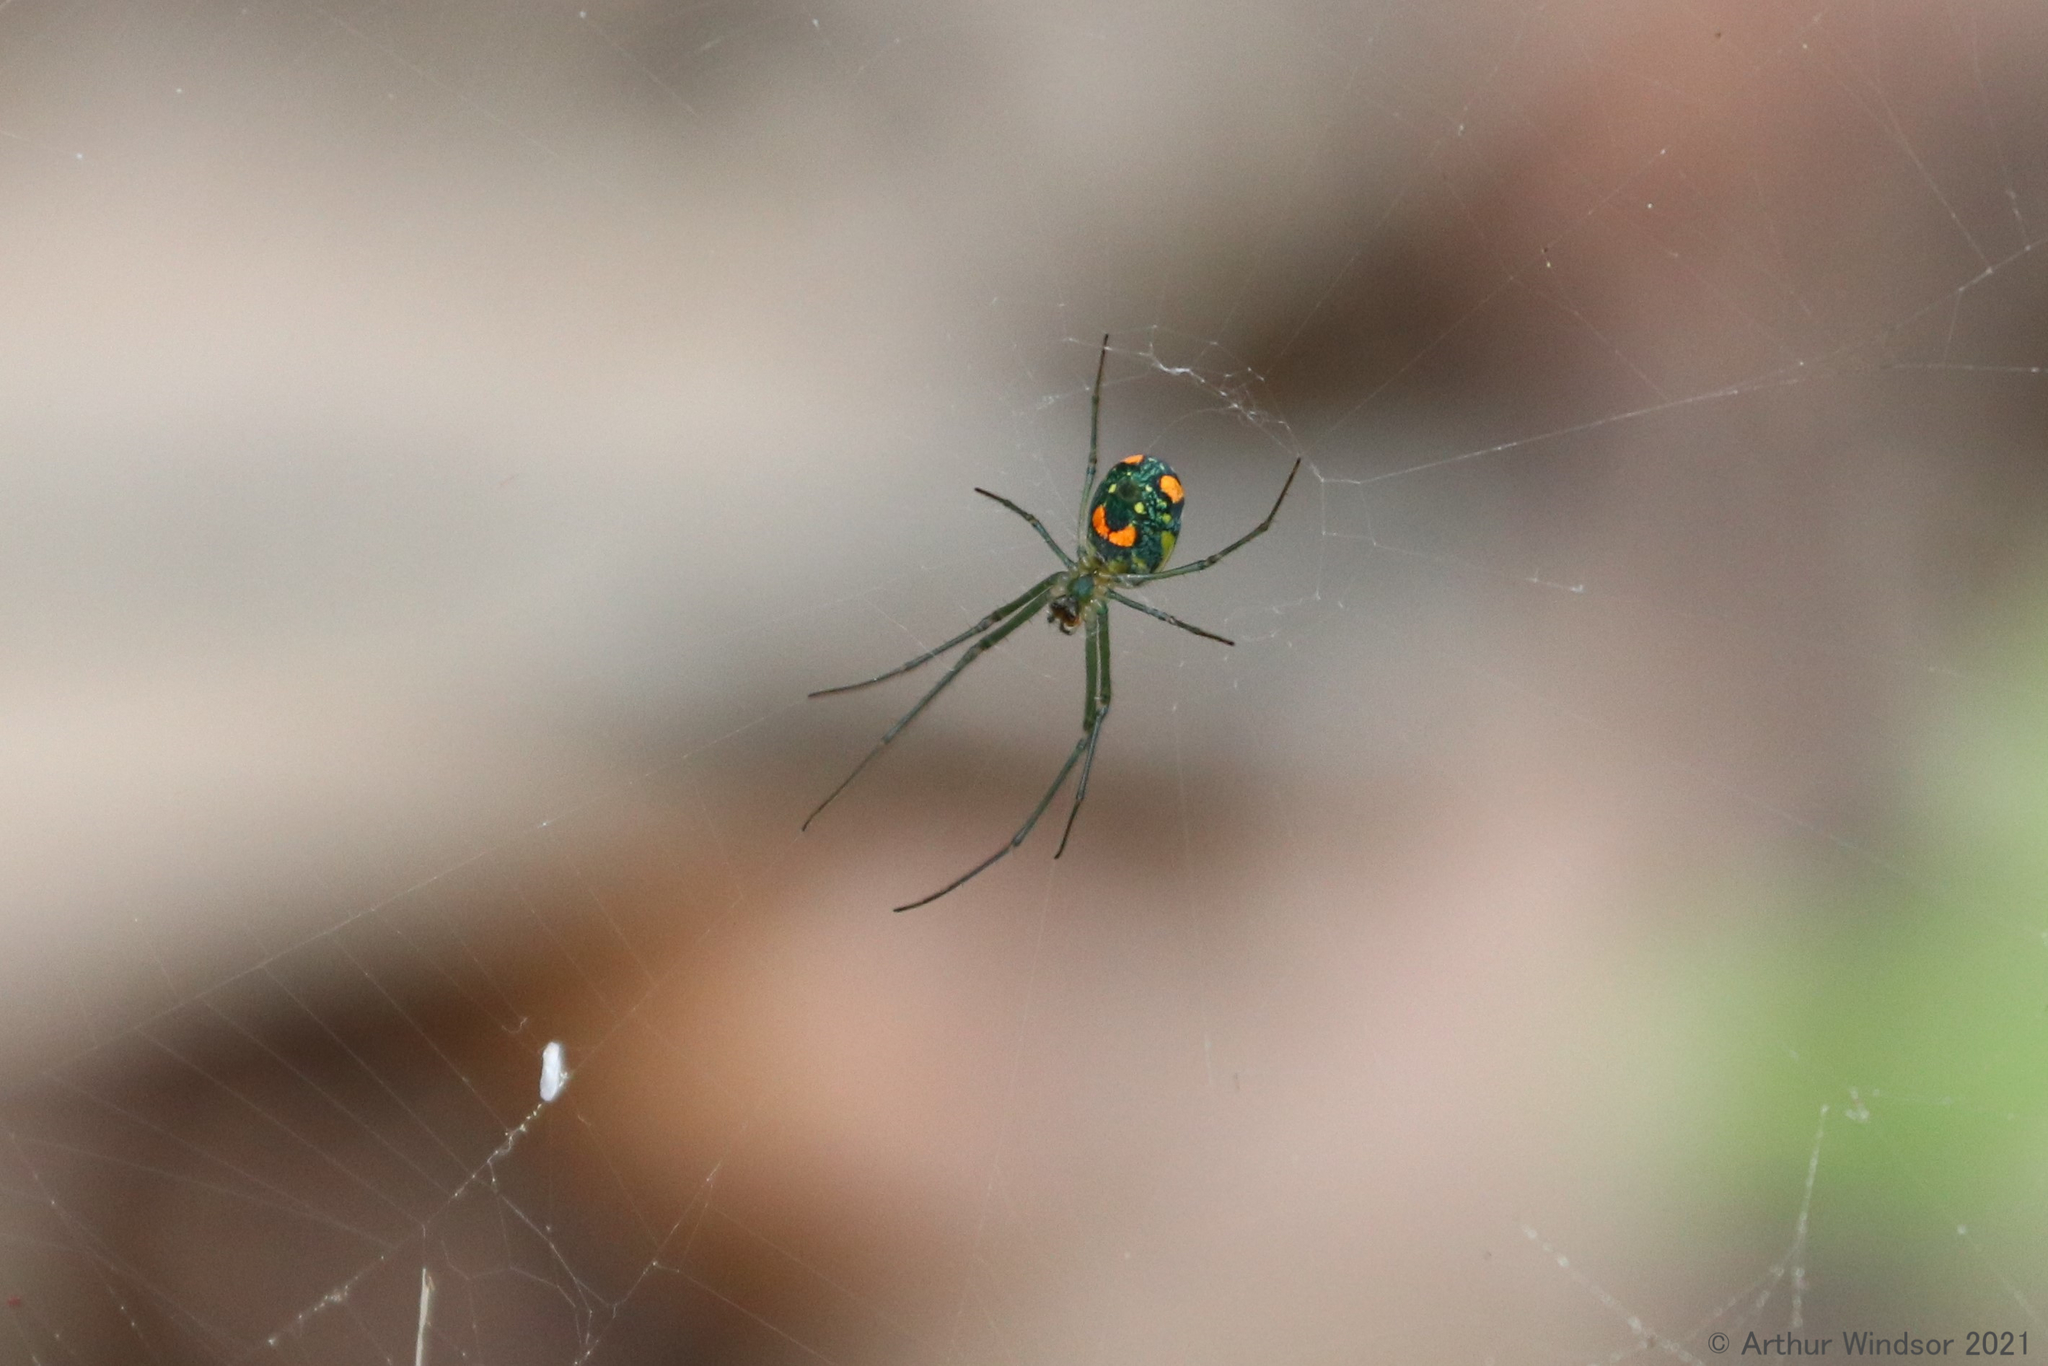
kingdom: Animalia
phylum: Arthropoda
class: Arachnida
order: Araneae
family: Tetragnathidae
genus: Leucauge
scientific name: Leucauge argyrobapta
